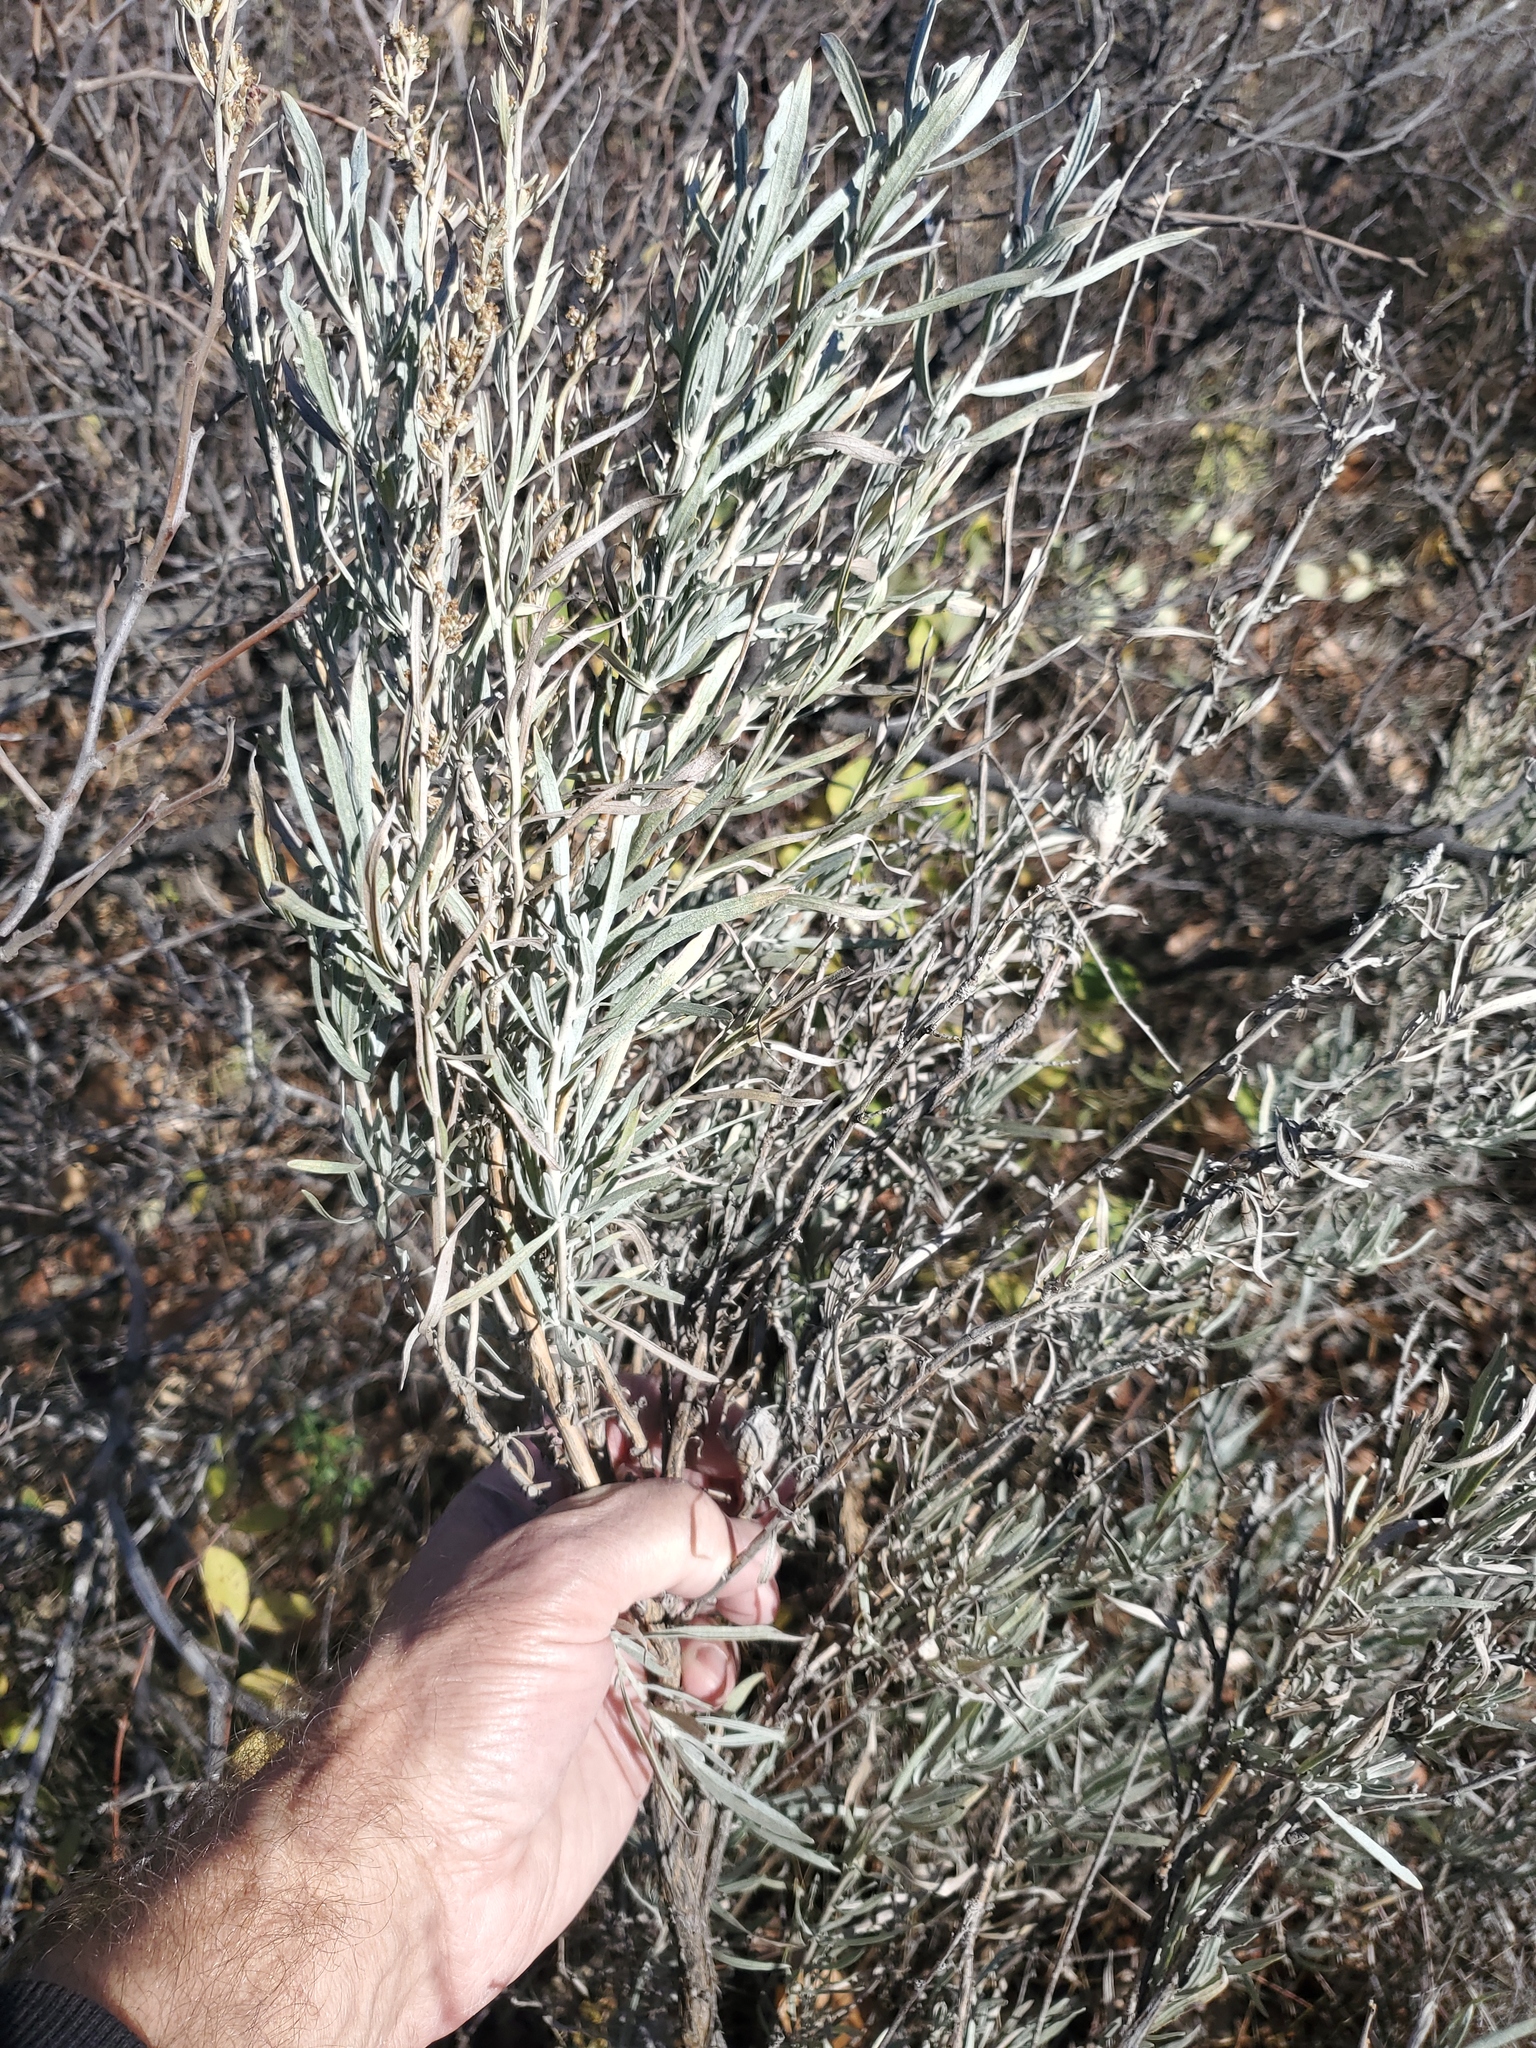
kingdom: Animalia
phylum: Arthropoda
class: Insecta
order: Diptera
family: Tephritidae
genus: Eutreta
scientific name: Eutreta diana
